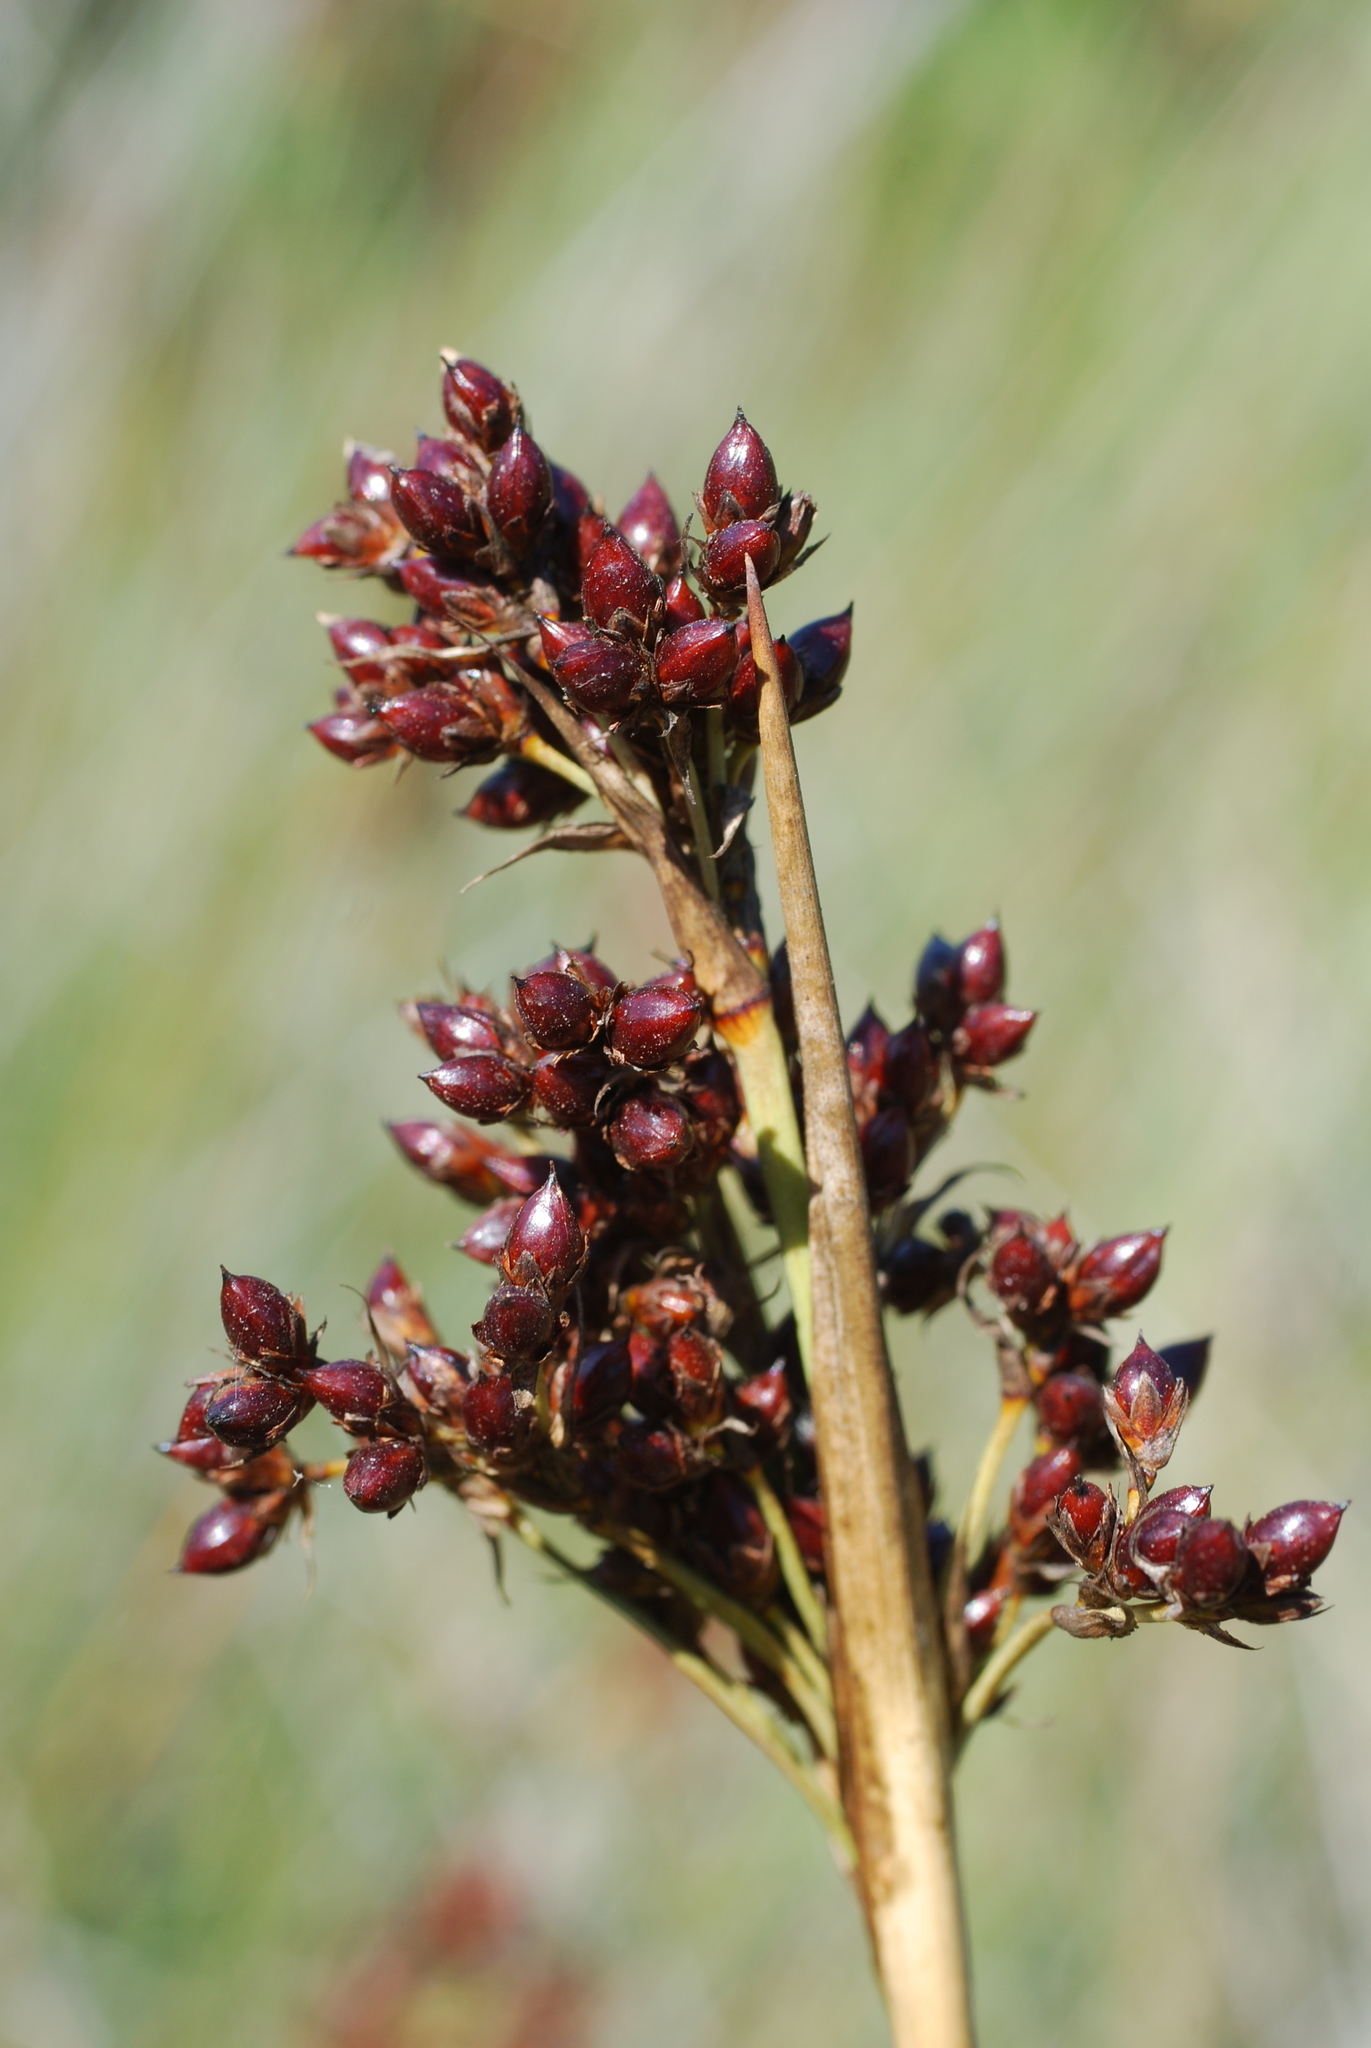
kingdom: Plantae
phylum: Tracheophyta
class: Liliopsida
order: Poales
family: Juncaceae
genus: Juncus
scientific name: Juncus acutus
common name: Sharp rush
